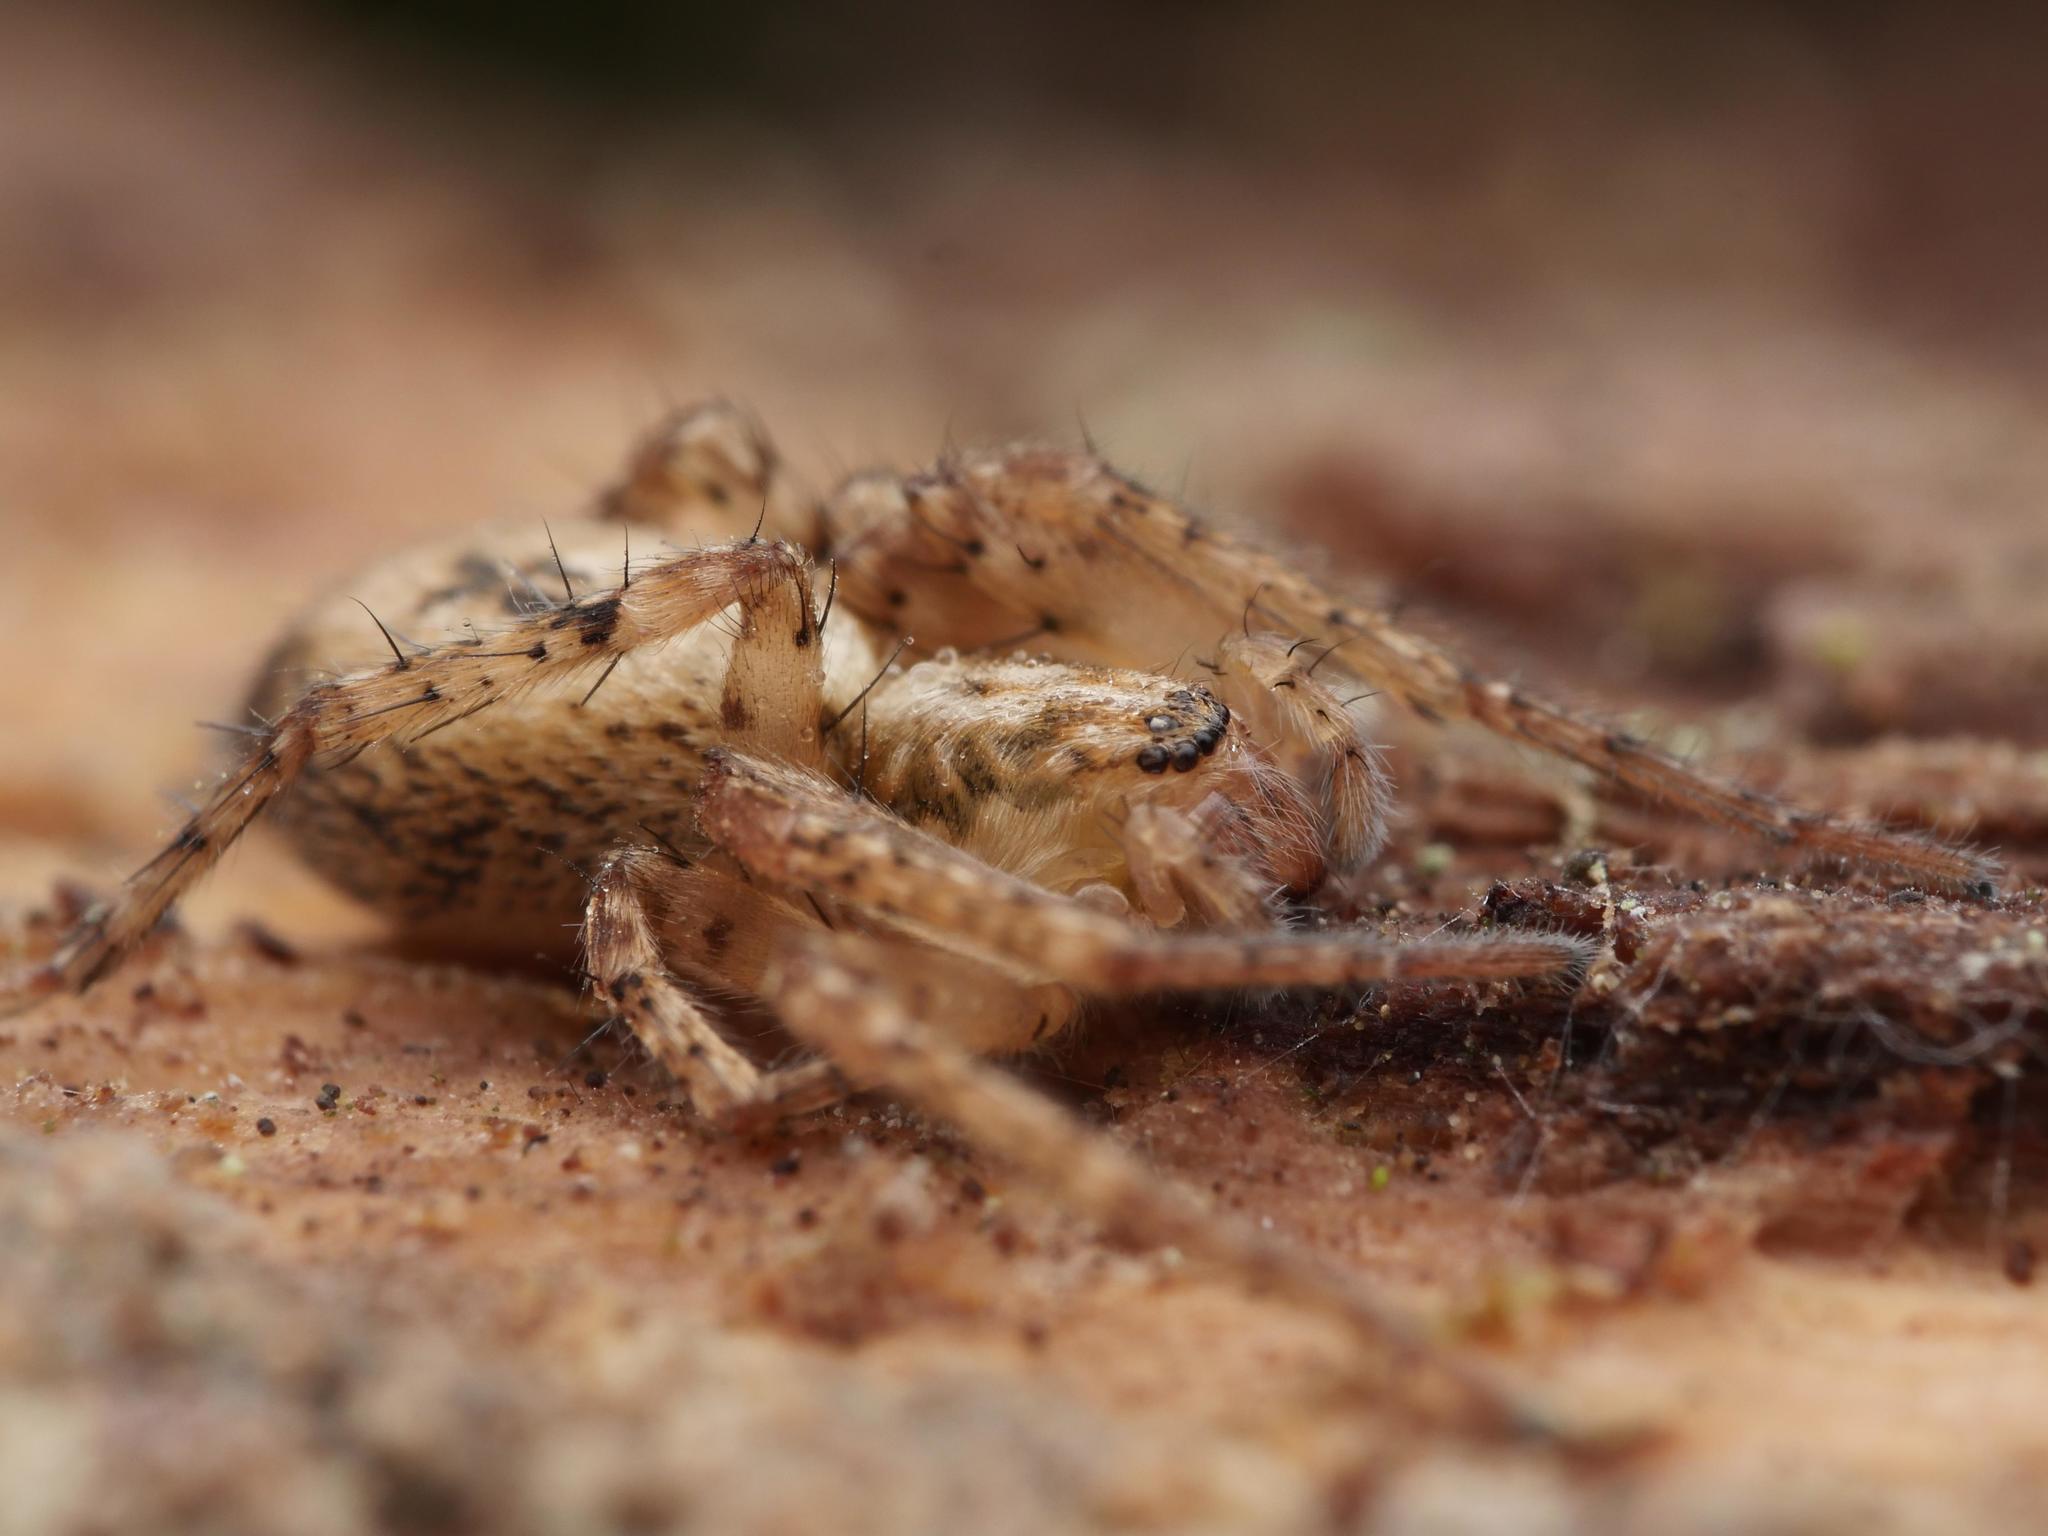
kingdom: Animalia
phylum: Arthropoda
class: Arachnida
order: Araneae
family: Anyphaenidae
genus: Anyphaena
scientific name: Anyphaena accentuata
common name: Buzzing spider
